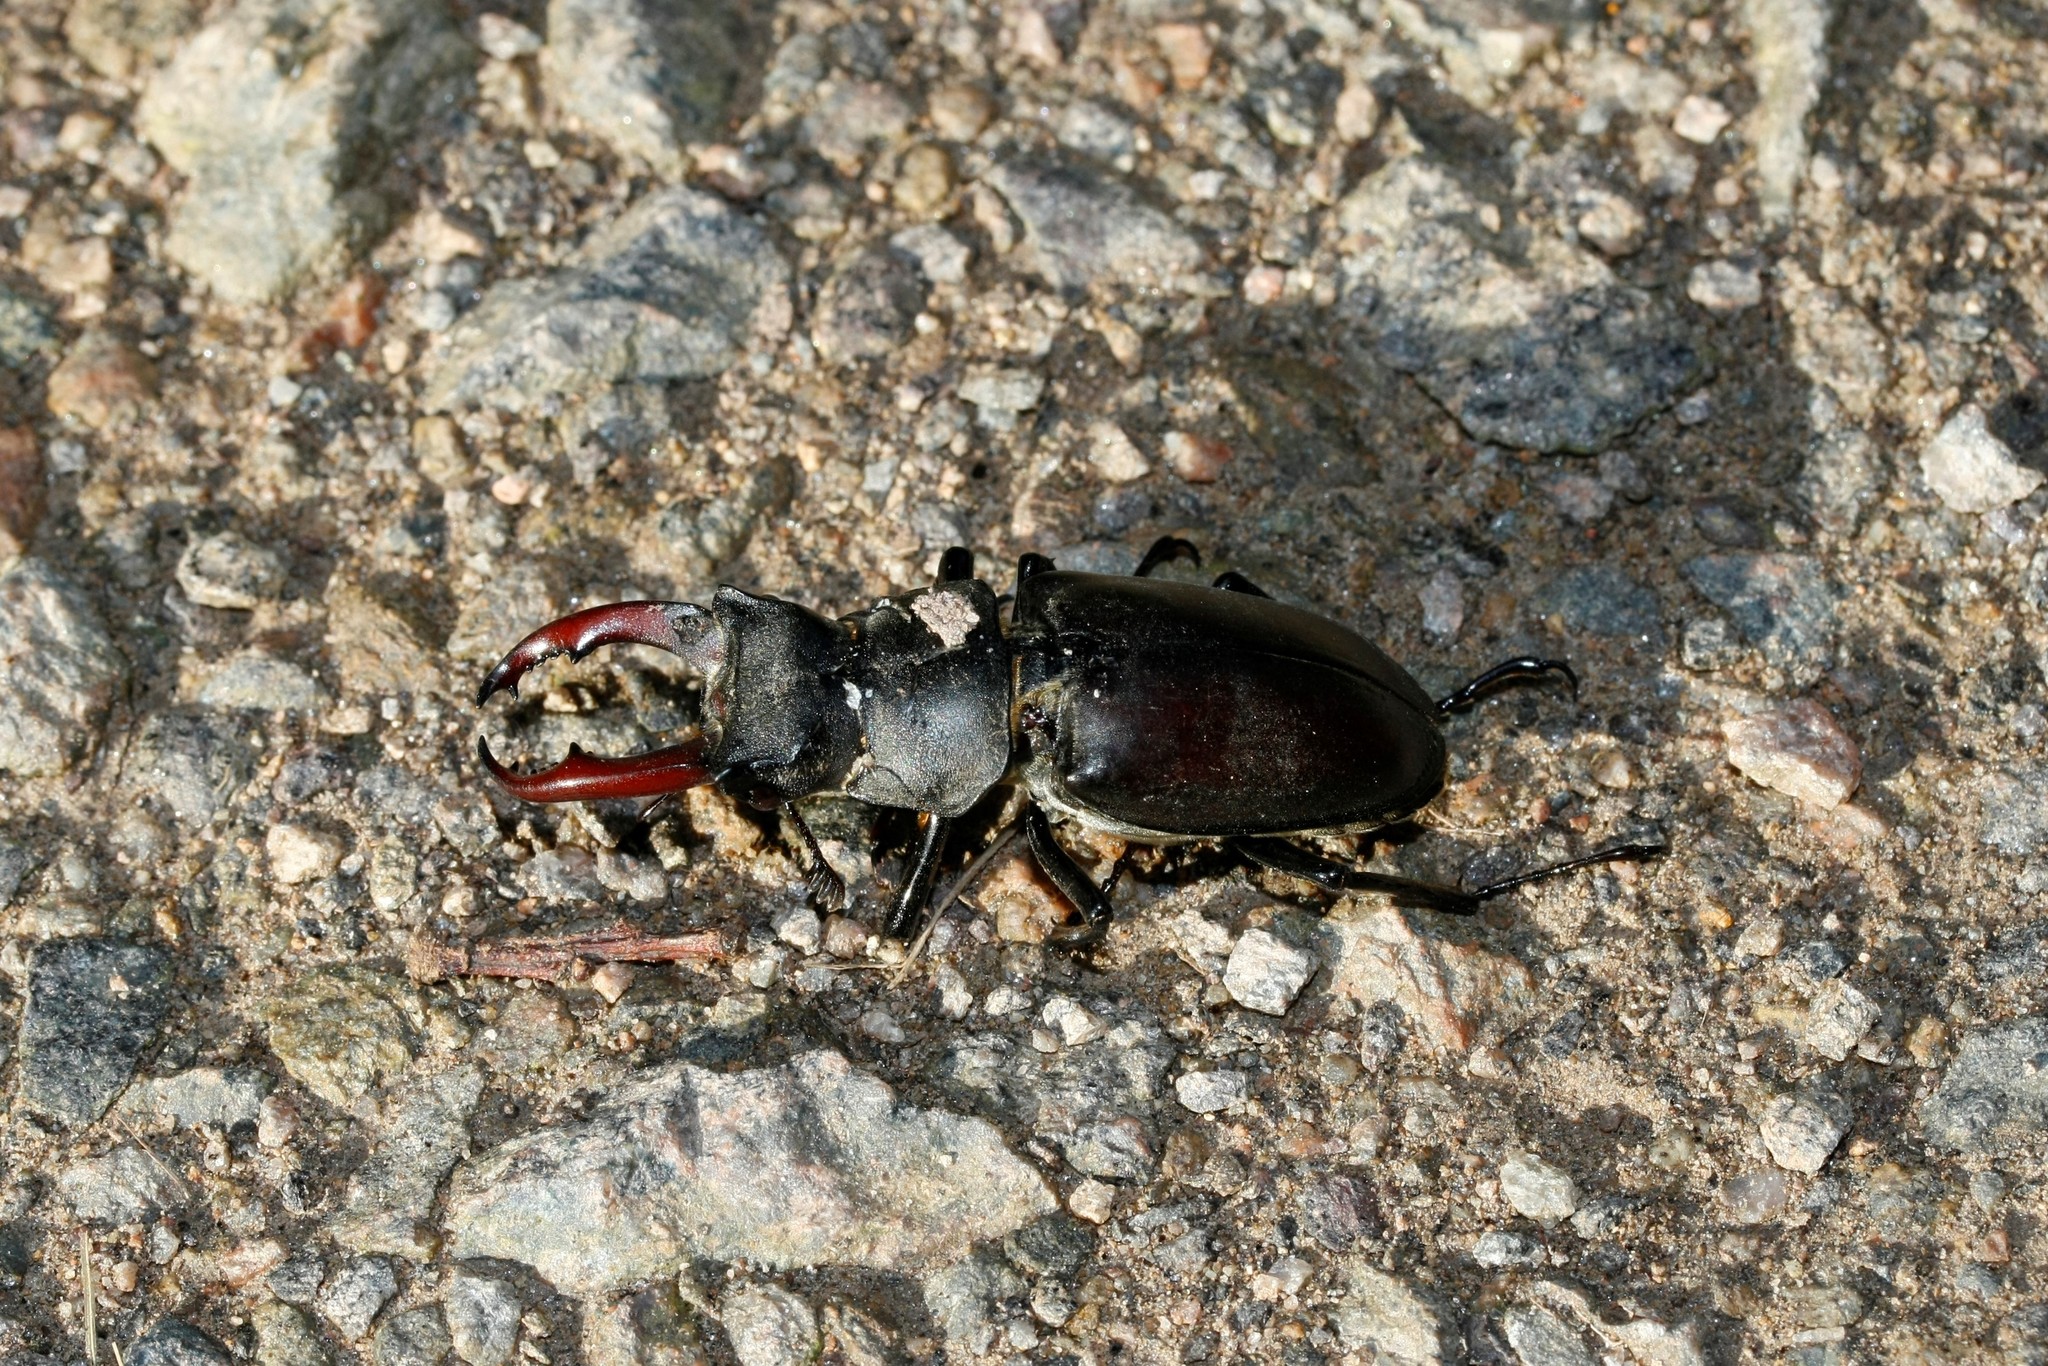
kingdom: Animalia
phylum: Arthropoda
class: Insecta
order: Coleoptera
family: Lucanidae
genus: Lucanus
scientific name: Lucanus cervus
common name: Stag beetle
